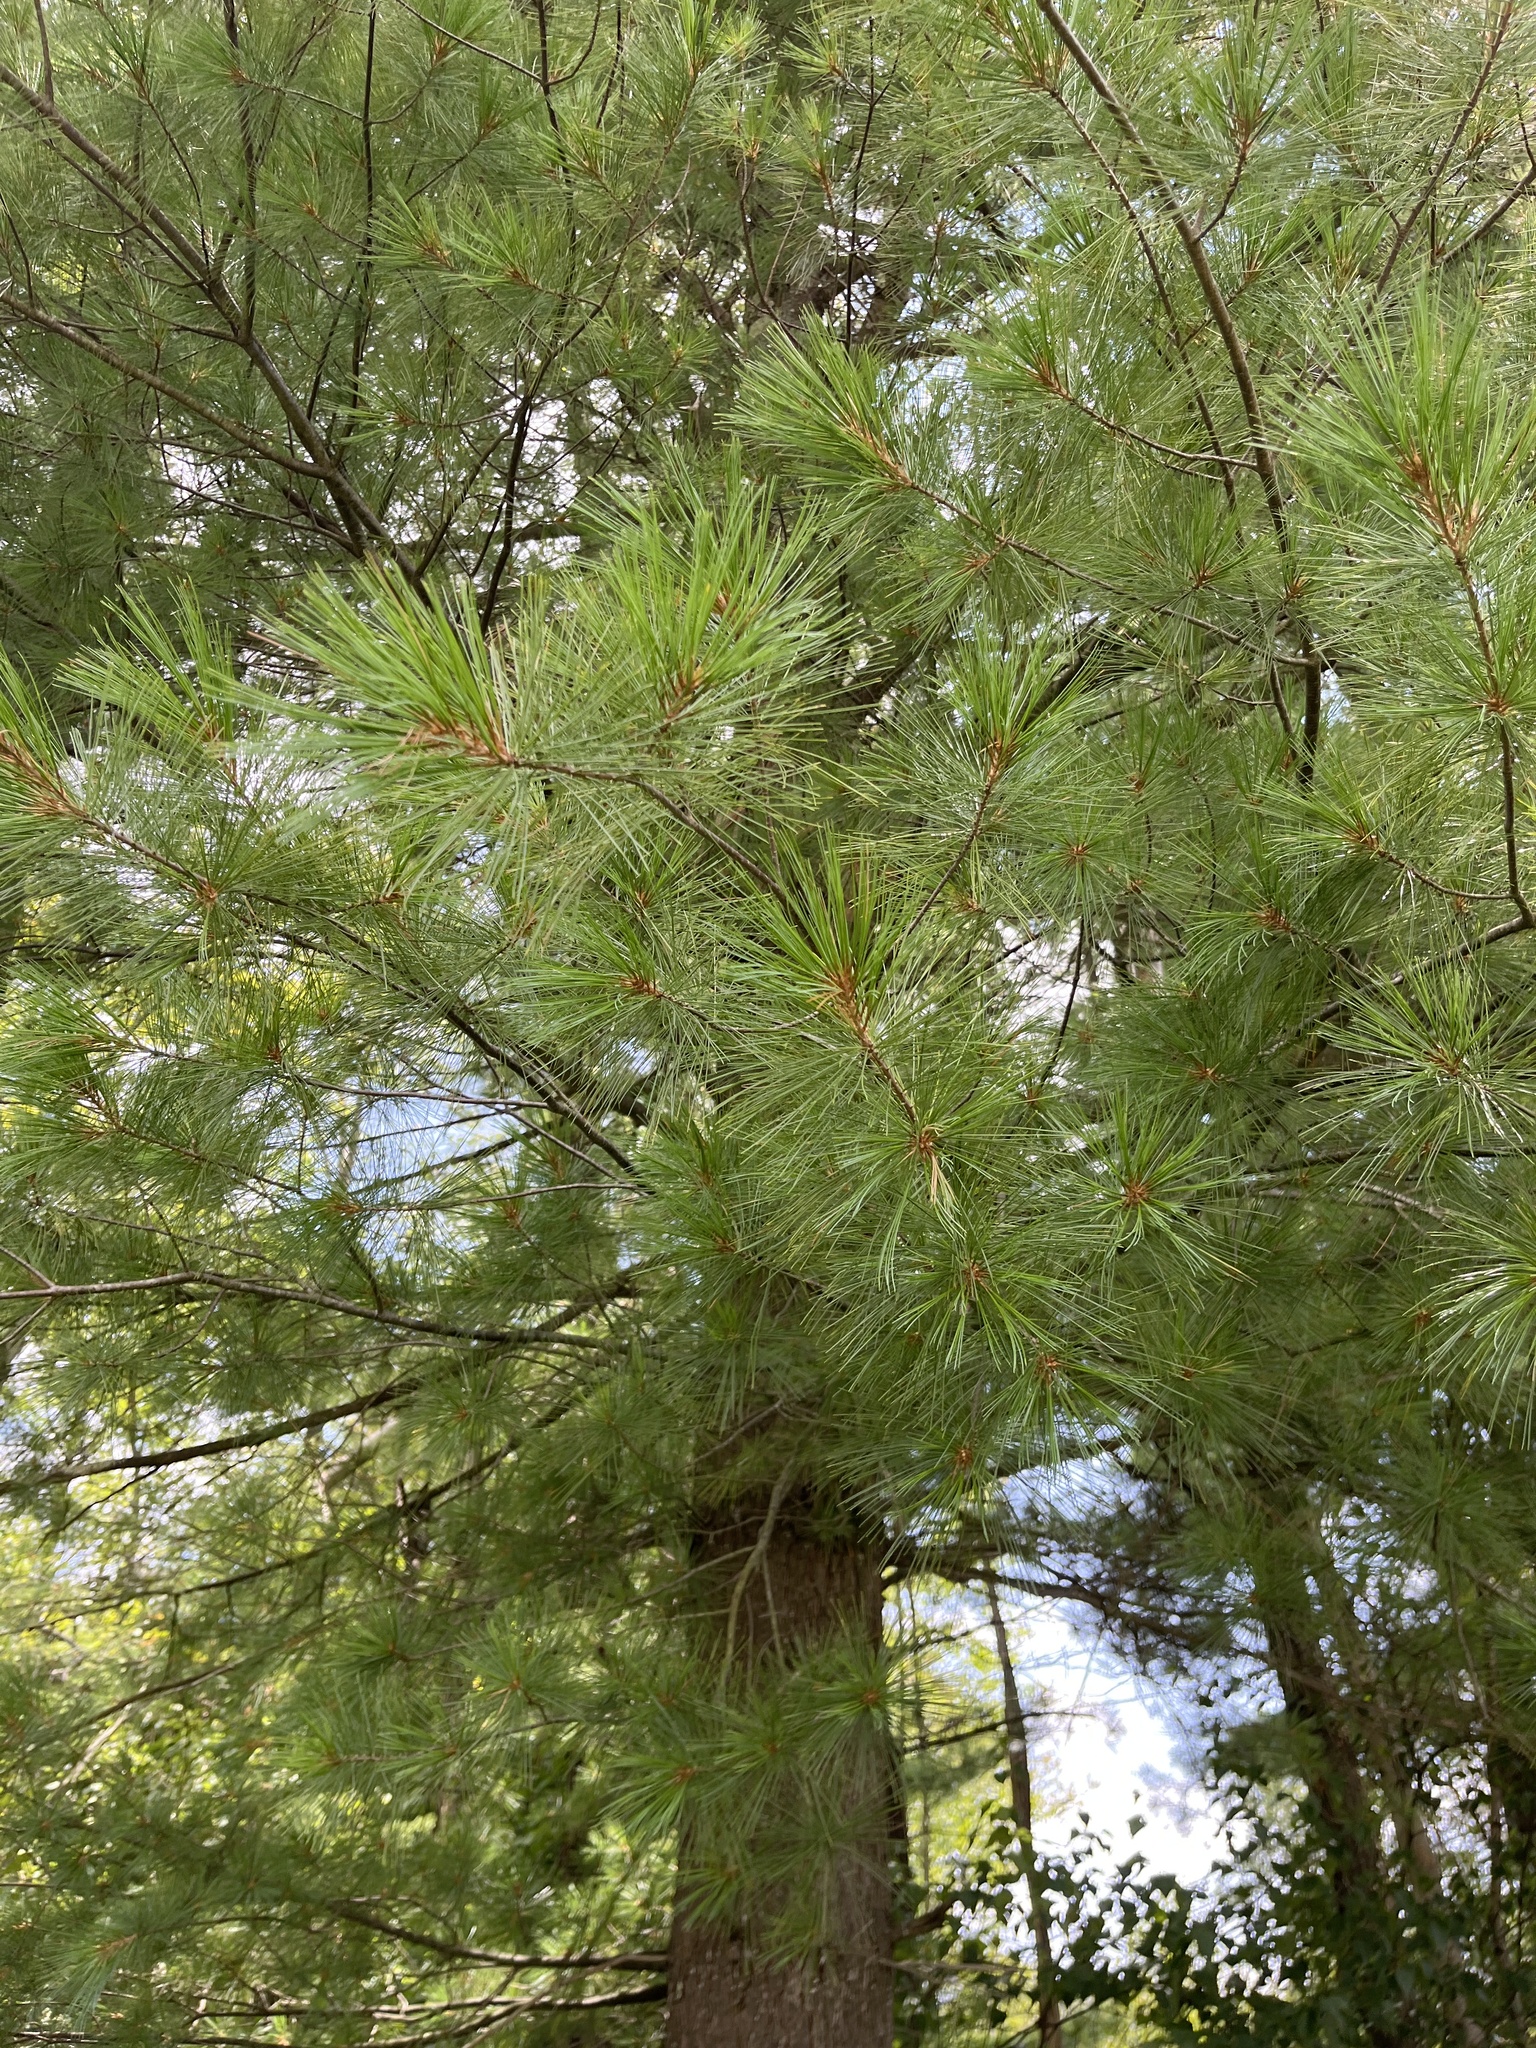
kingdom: Plantae
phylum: Tracheophyta
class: Pinopsida
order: Pinales
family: Pinaceae
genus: Pinus
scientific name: Pinus strobus
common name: Weymouth pine
